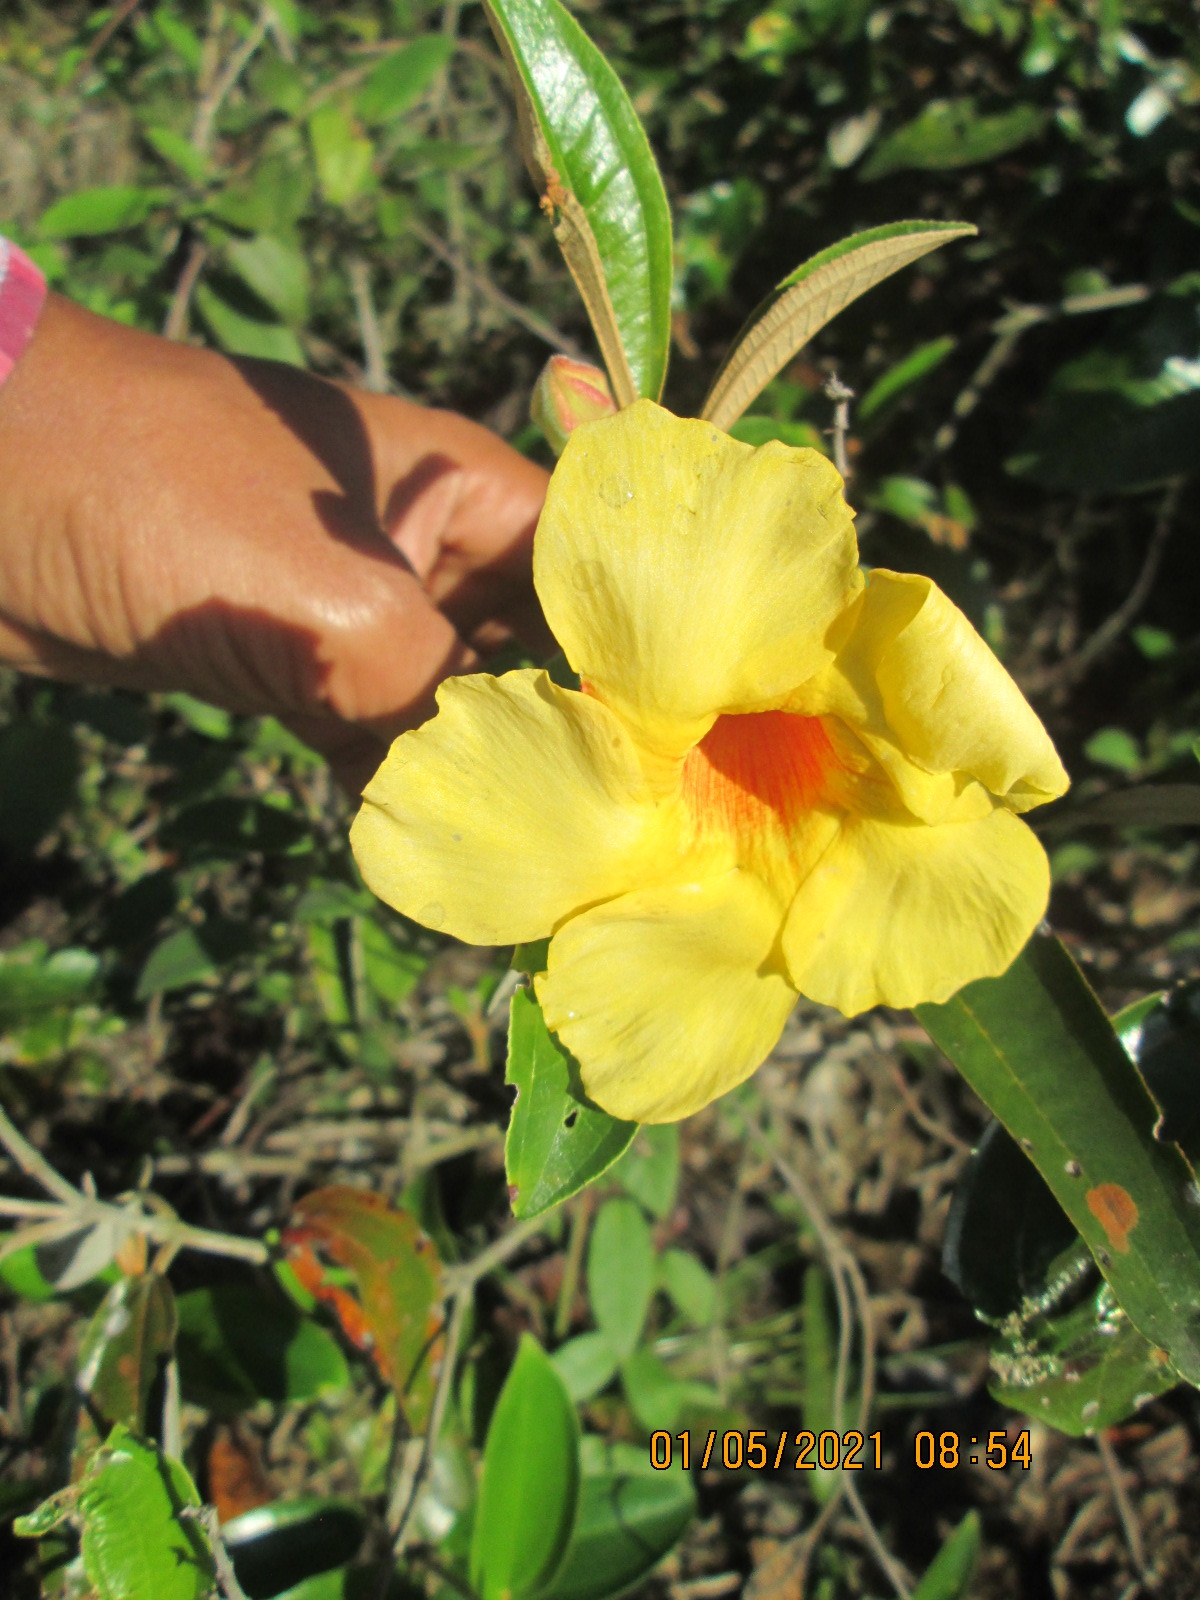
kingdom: Plantae
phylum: Tracheophyta
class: Magnoliopsida
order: Gentianales
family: Apocynaceae
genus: Allamanda
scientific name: Allamanda cathartica
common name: Golden trumpet
